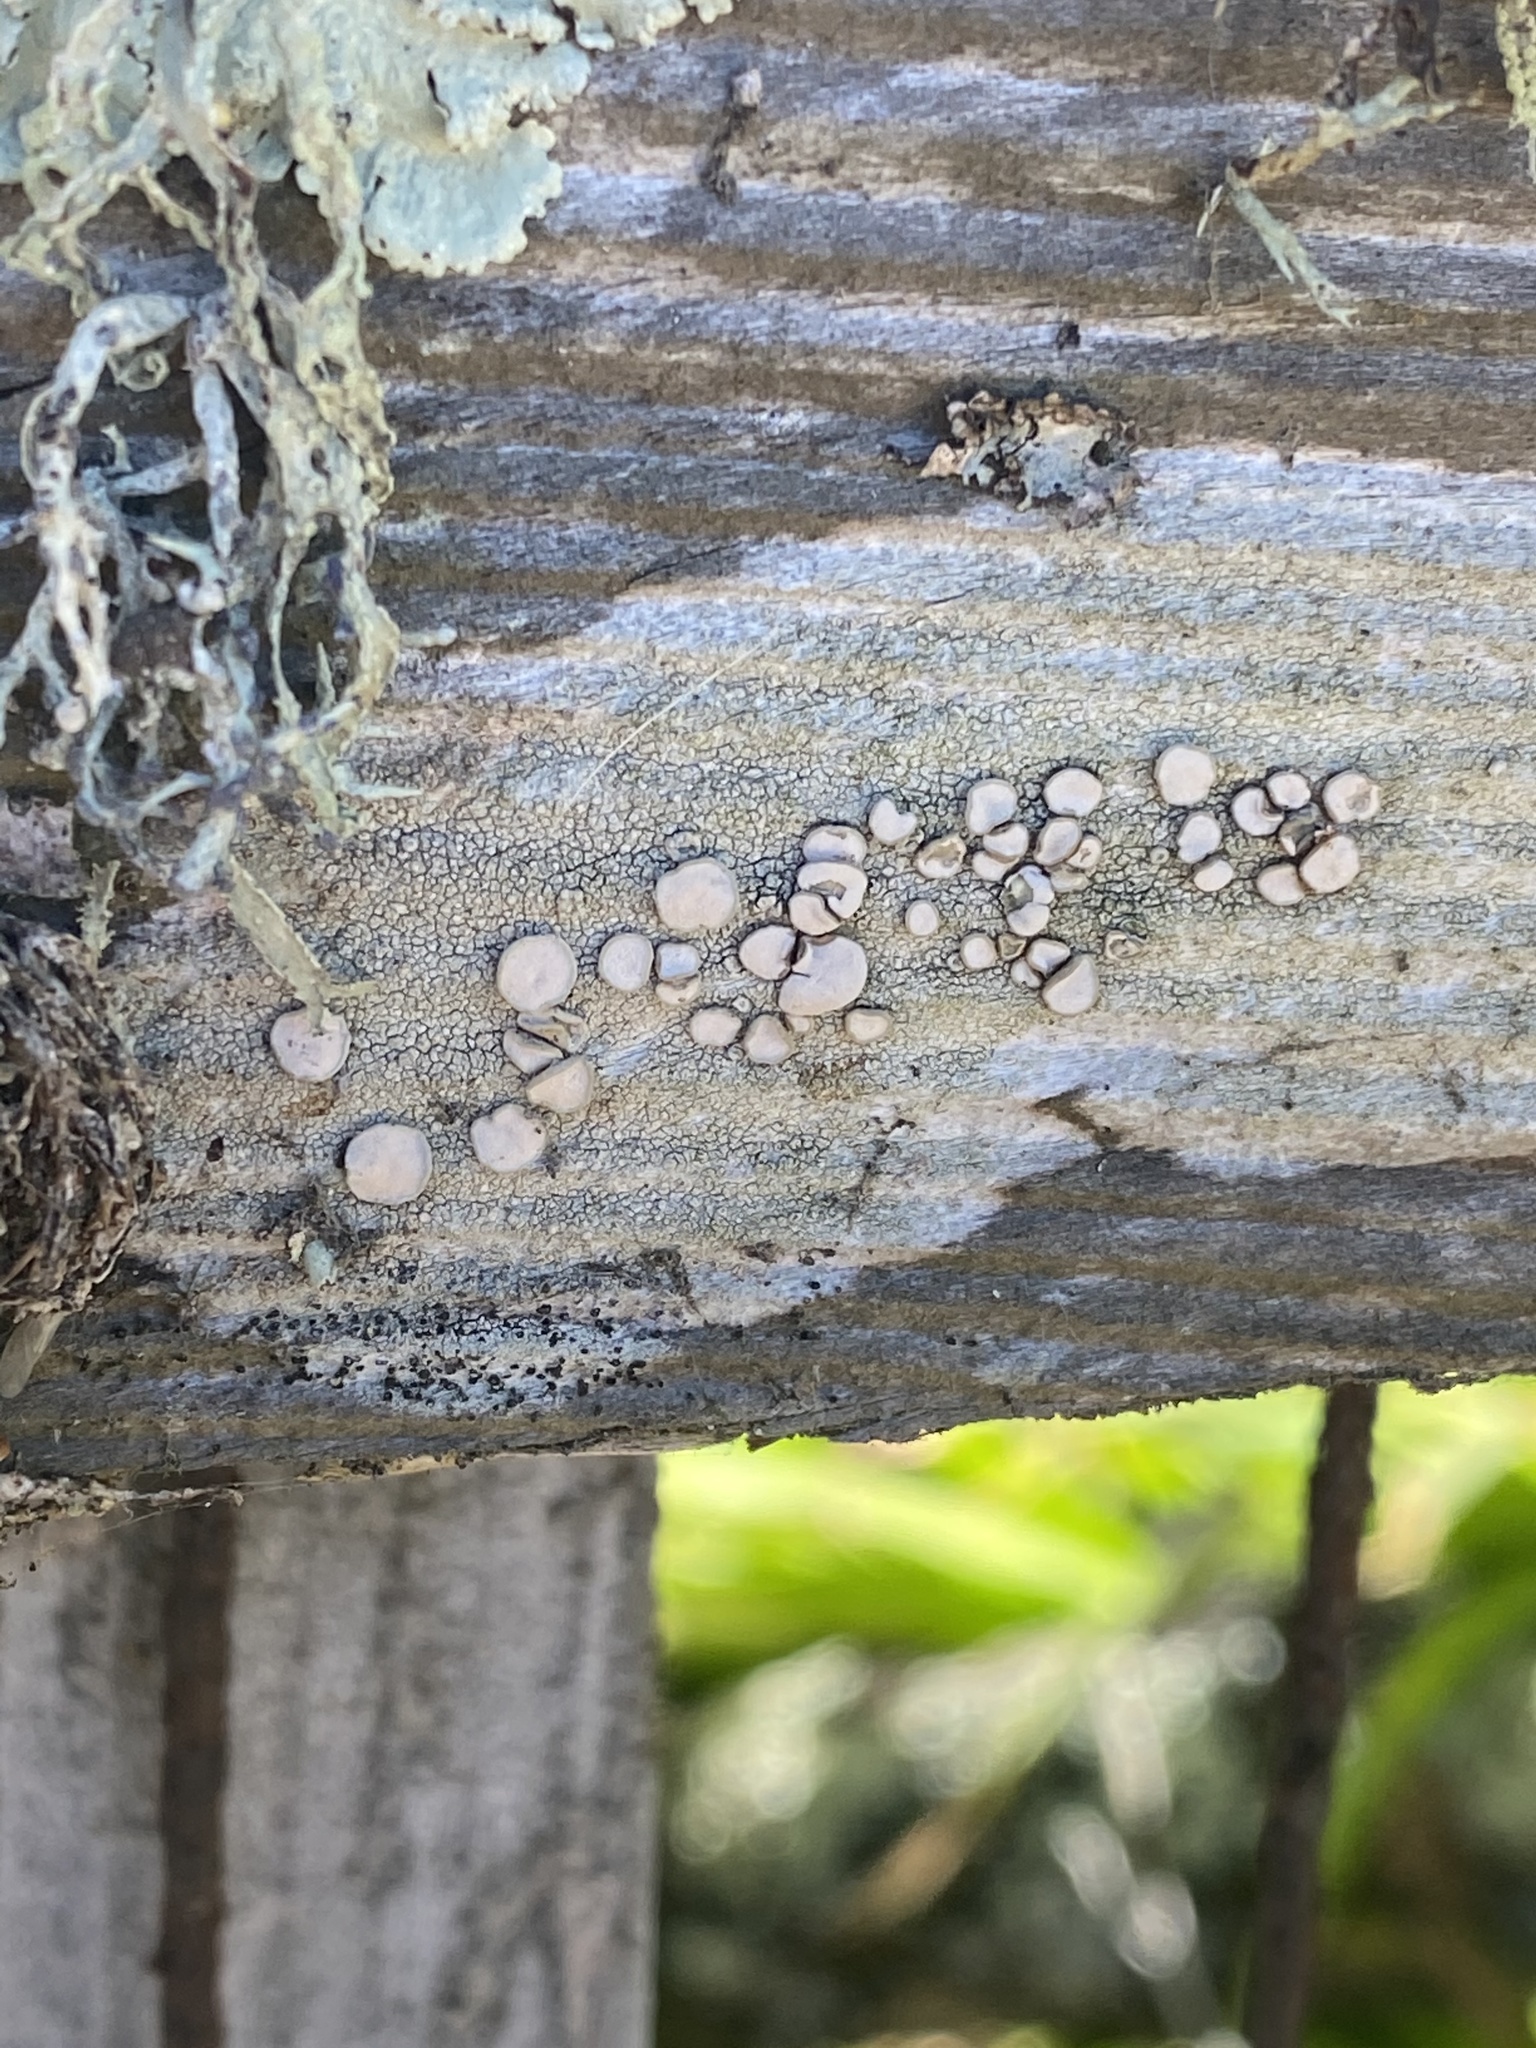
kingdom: Fungi
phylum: Ascomycota
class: Lecanoromycetes
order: Lecanorales
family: Lecanoraceae
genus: Lecanora
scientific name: Lecanora caesiorubella
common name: Frosted rim-lichen
